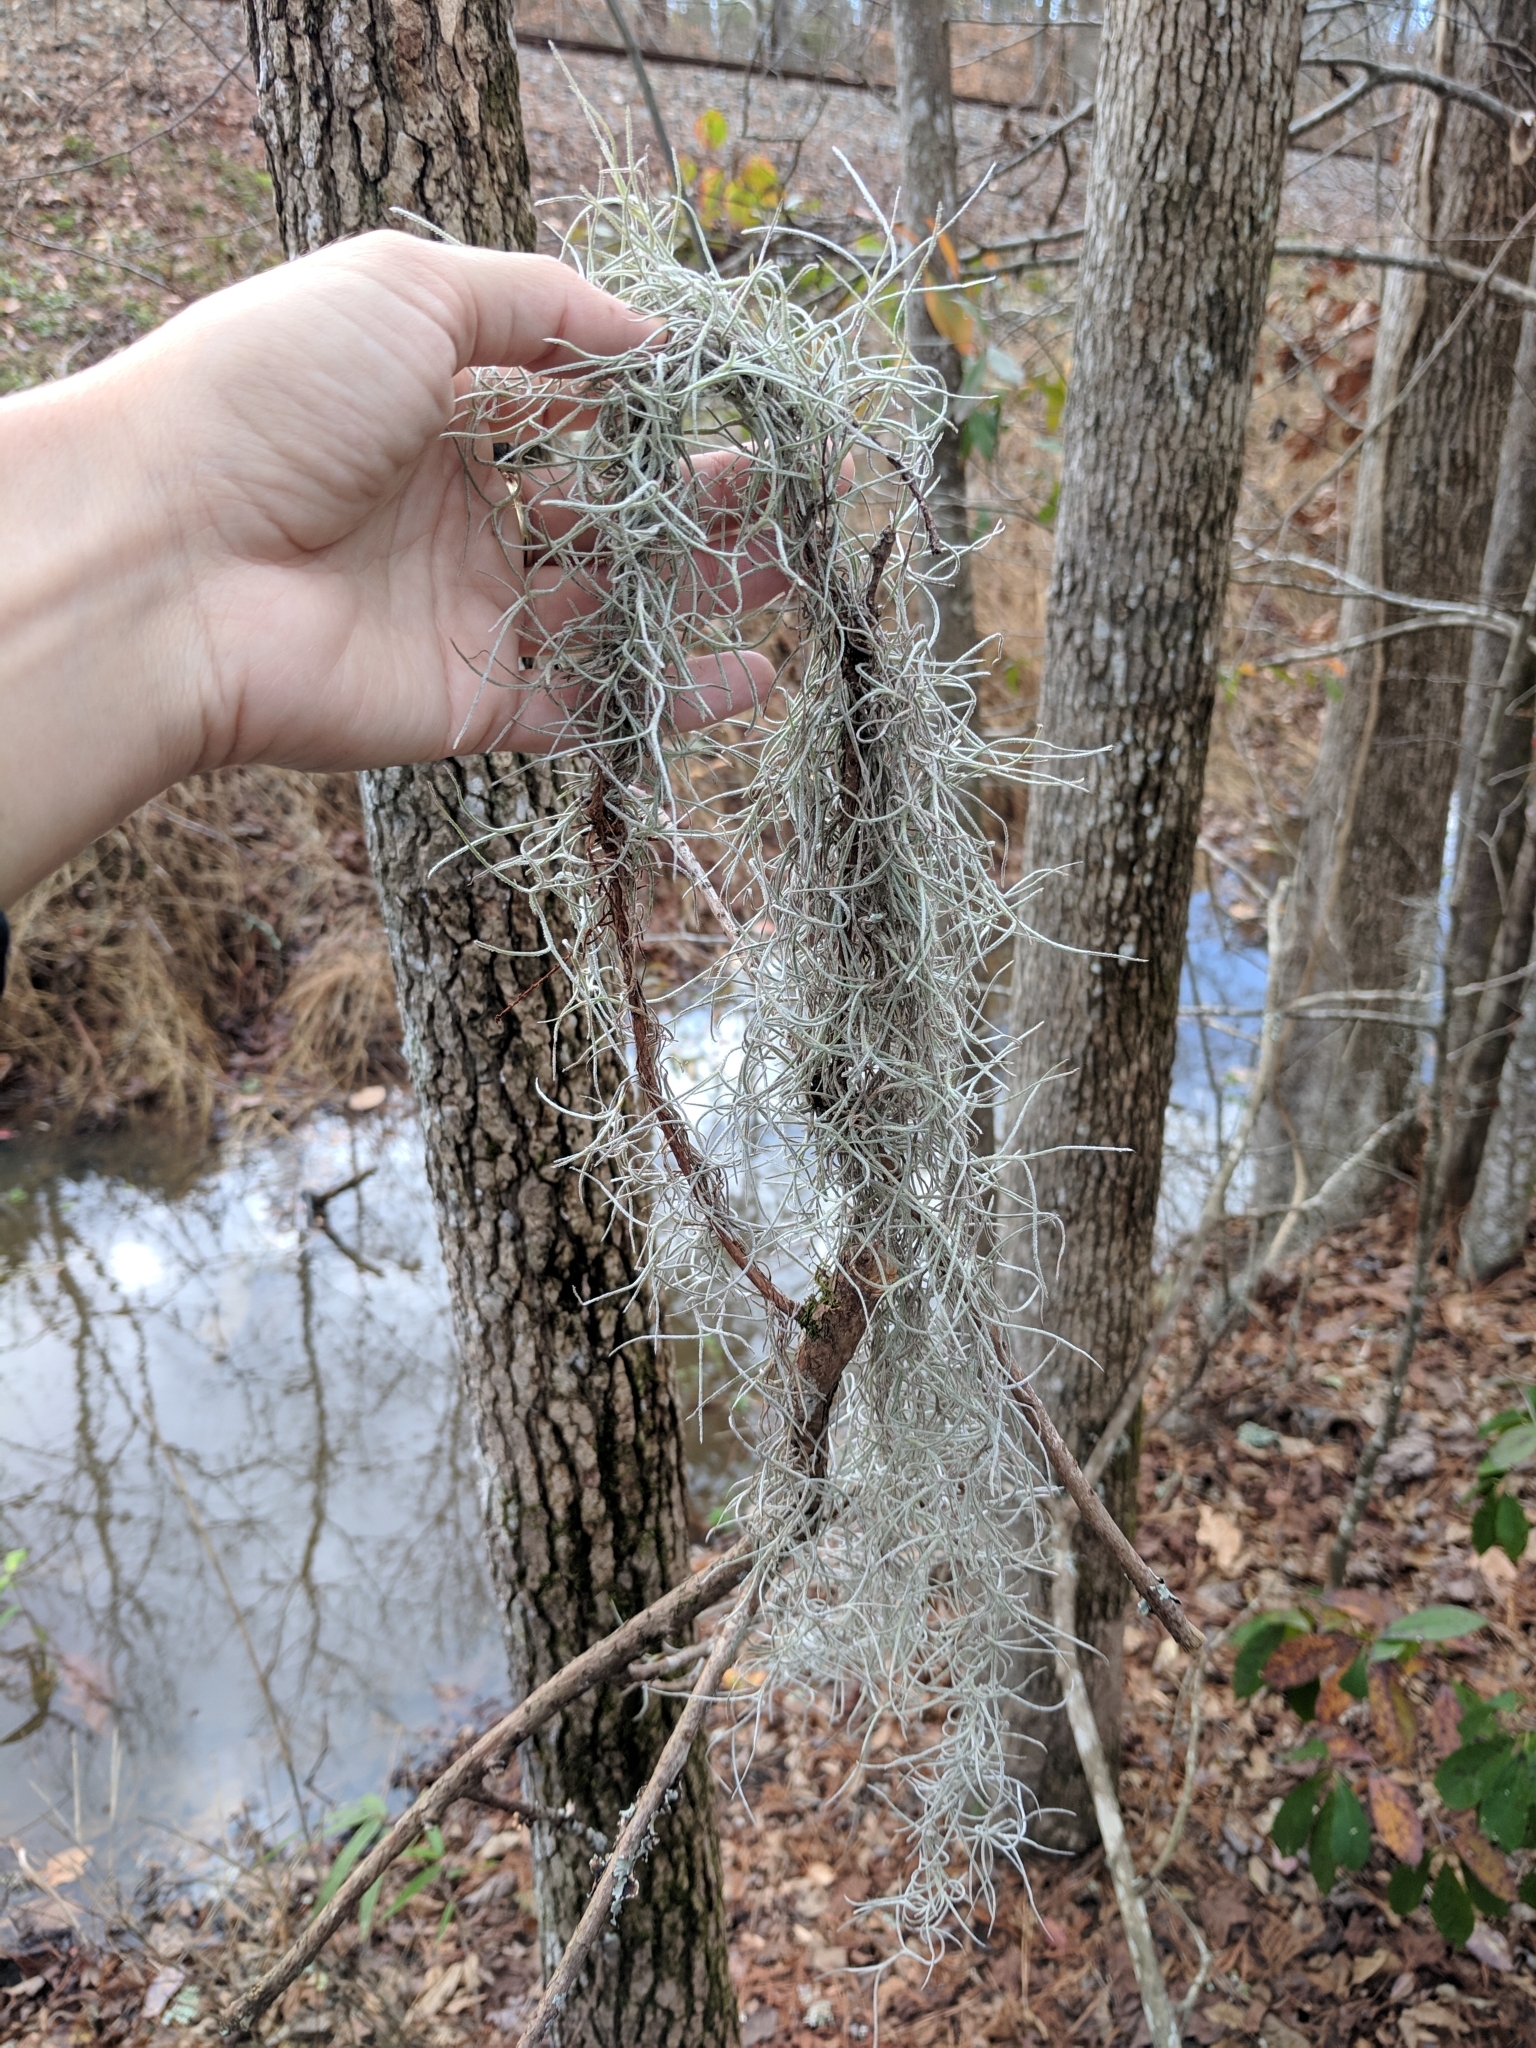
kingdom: Plantae
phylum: Tracheophyta
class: Liliopsida
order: Poales
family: Bromeliaceae
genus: Tillandsia
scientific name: Tillandsia usneoides
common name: Spanish moss
